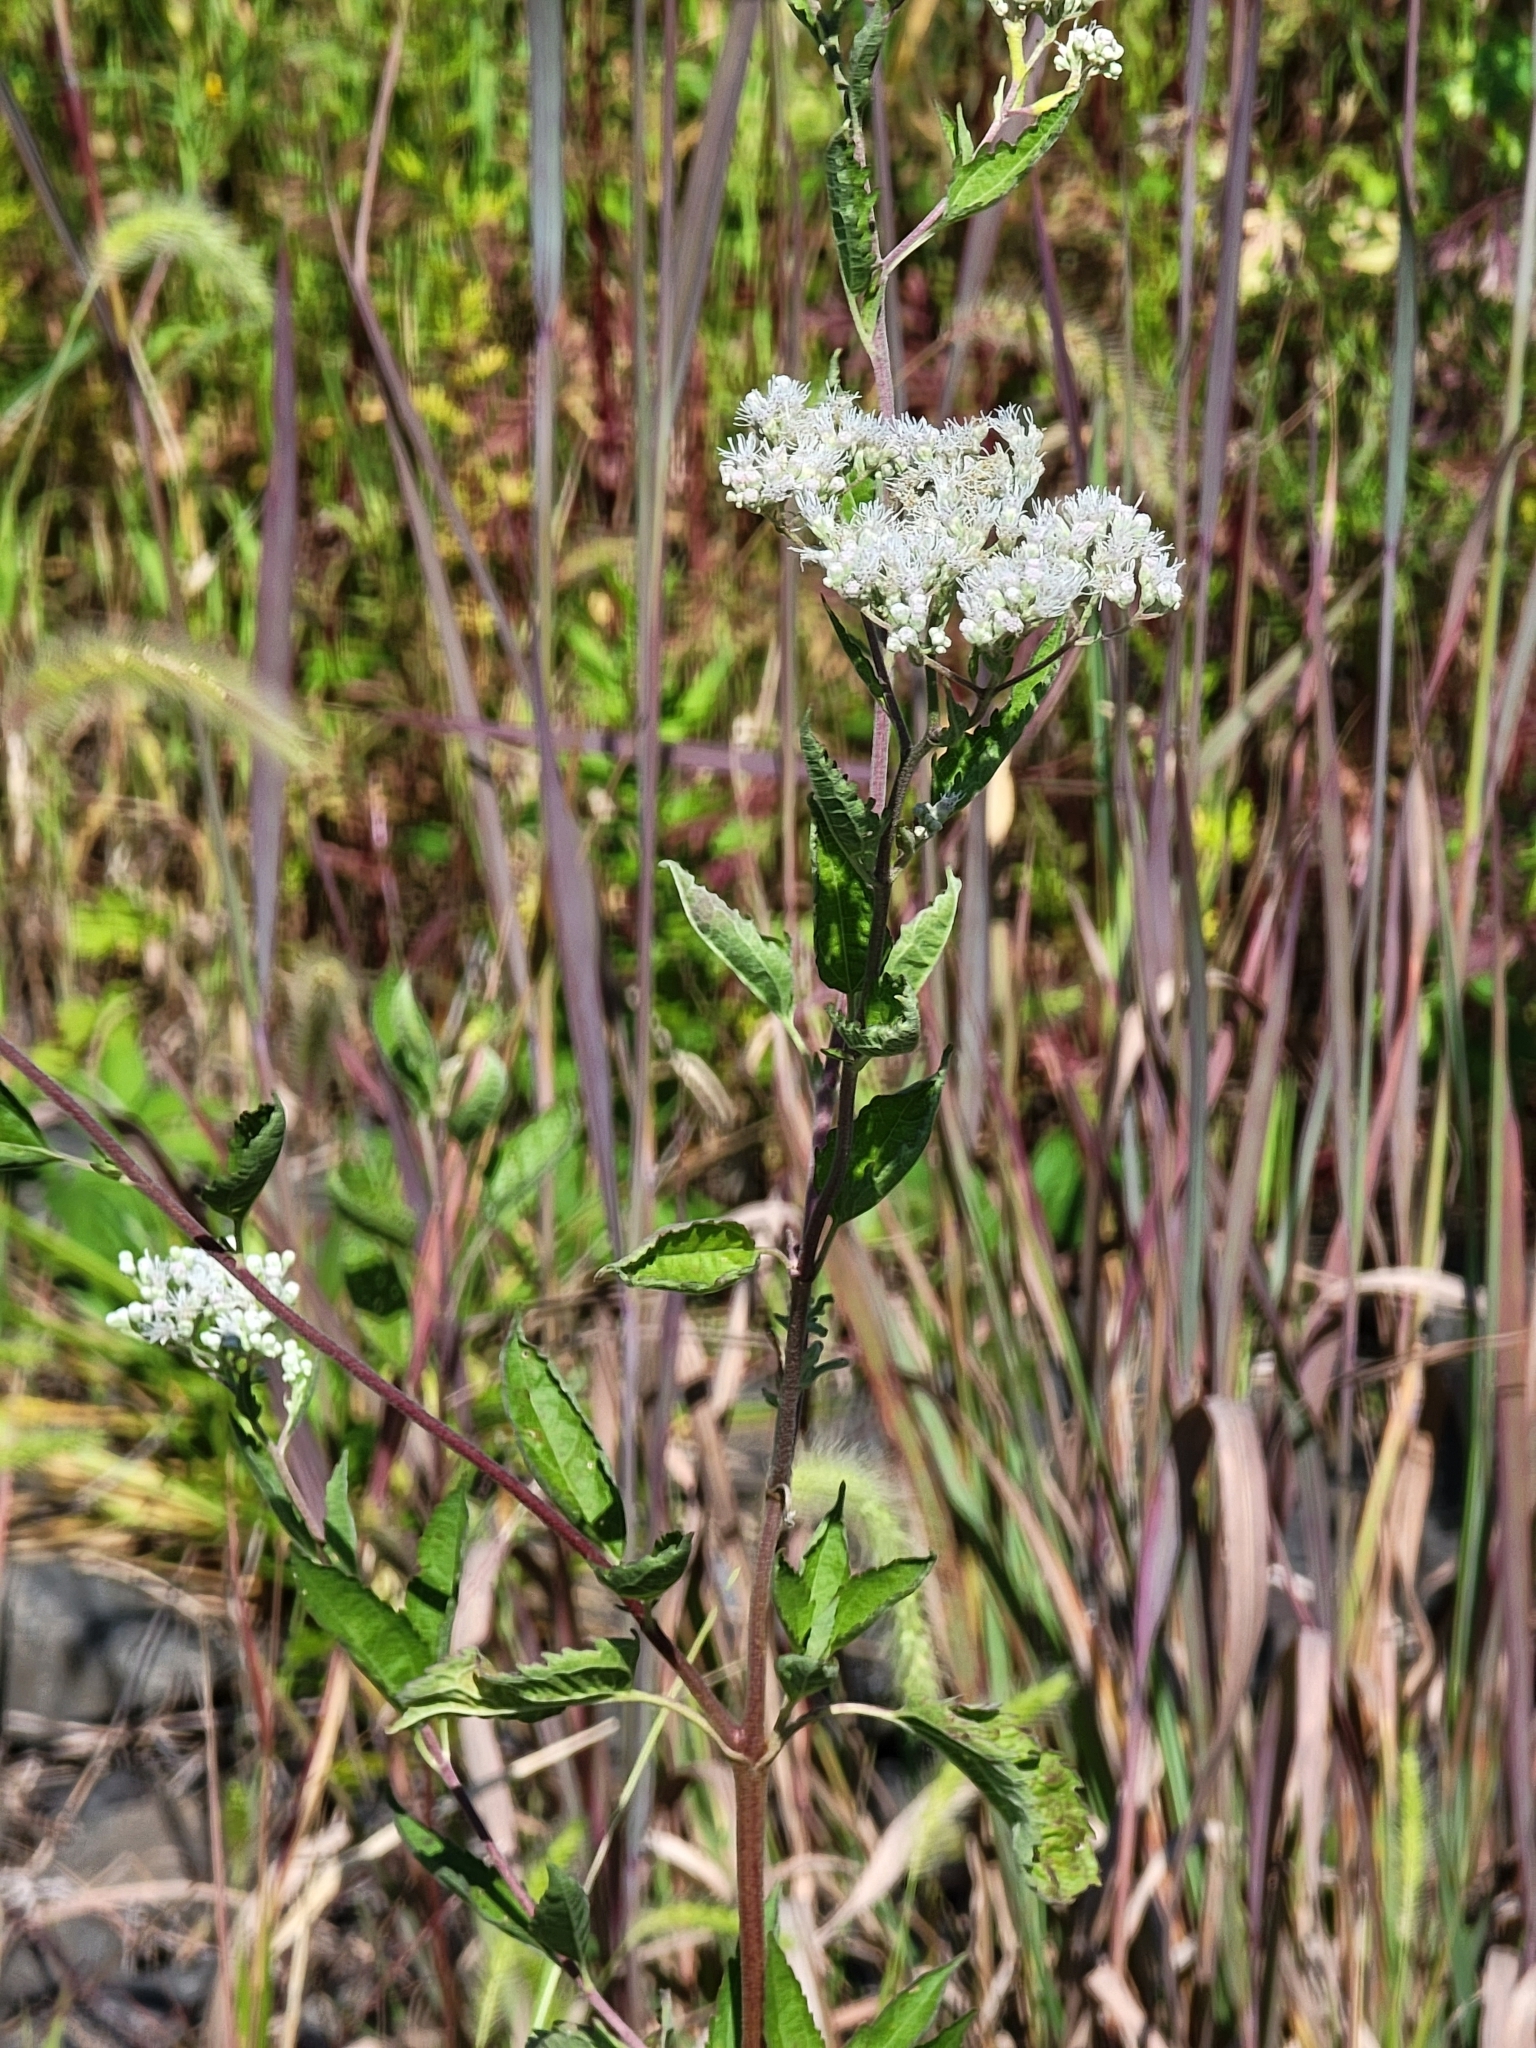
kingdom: Plantae
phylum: Tracheophyta
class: Magnoliopsida
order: Asterales
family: Asteraceae
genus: Eupatorium
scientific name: Eupatorium serotinum
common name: Late boneset
